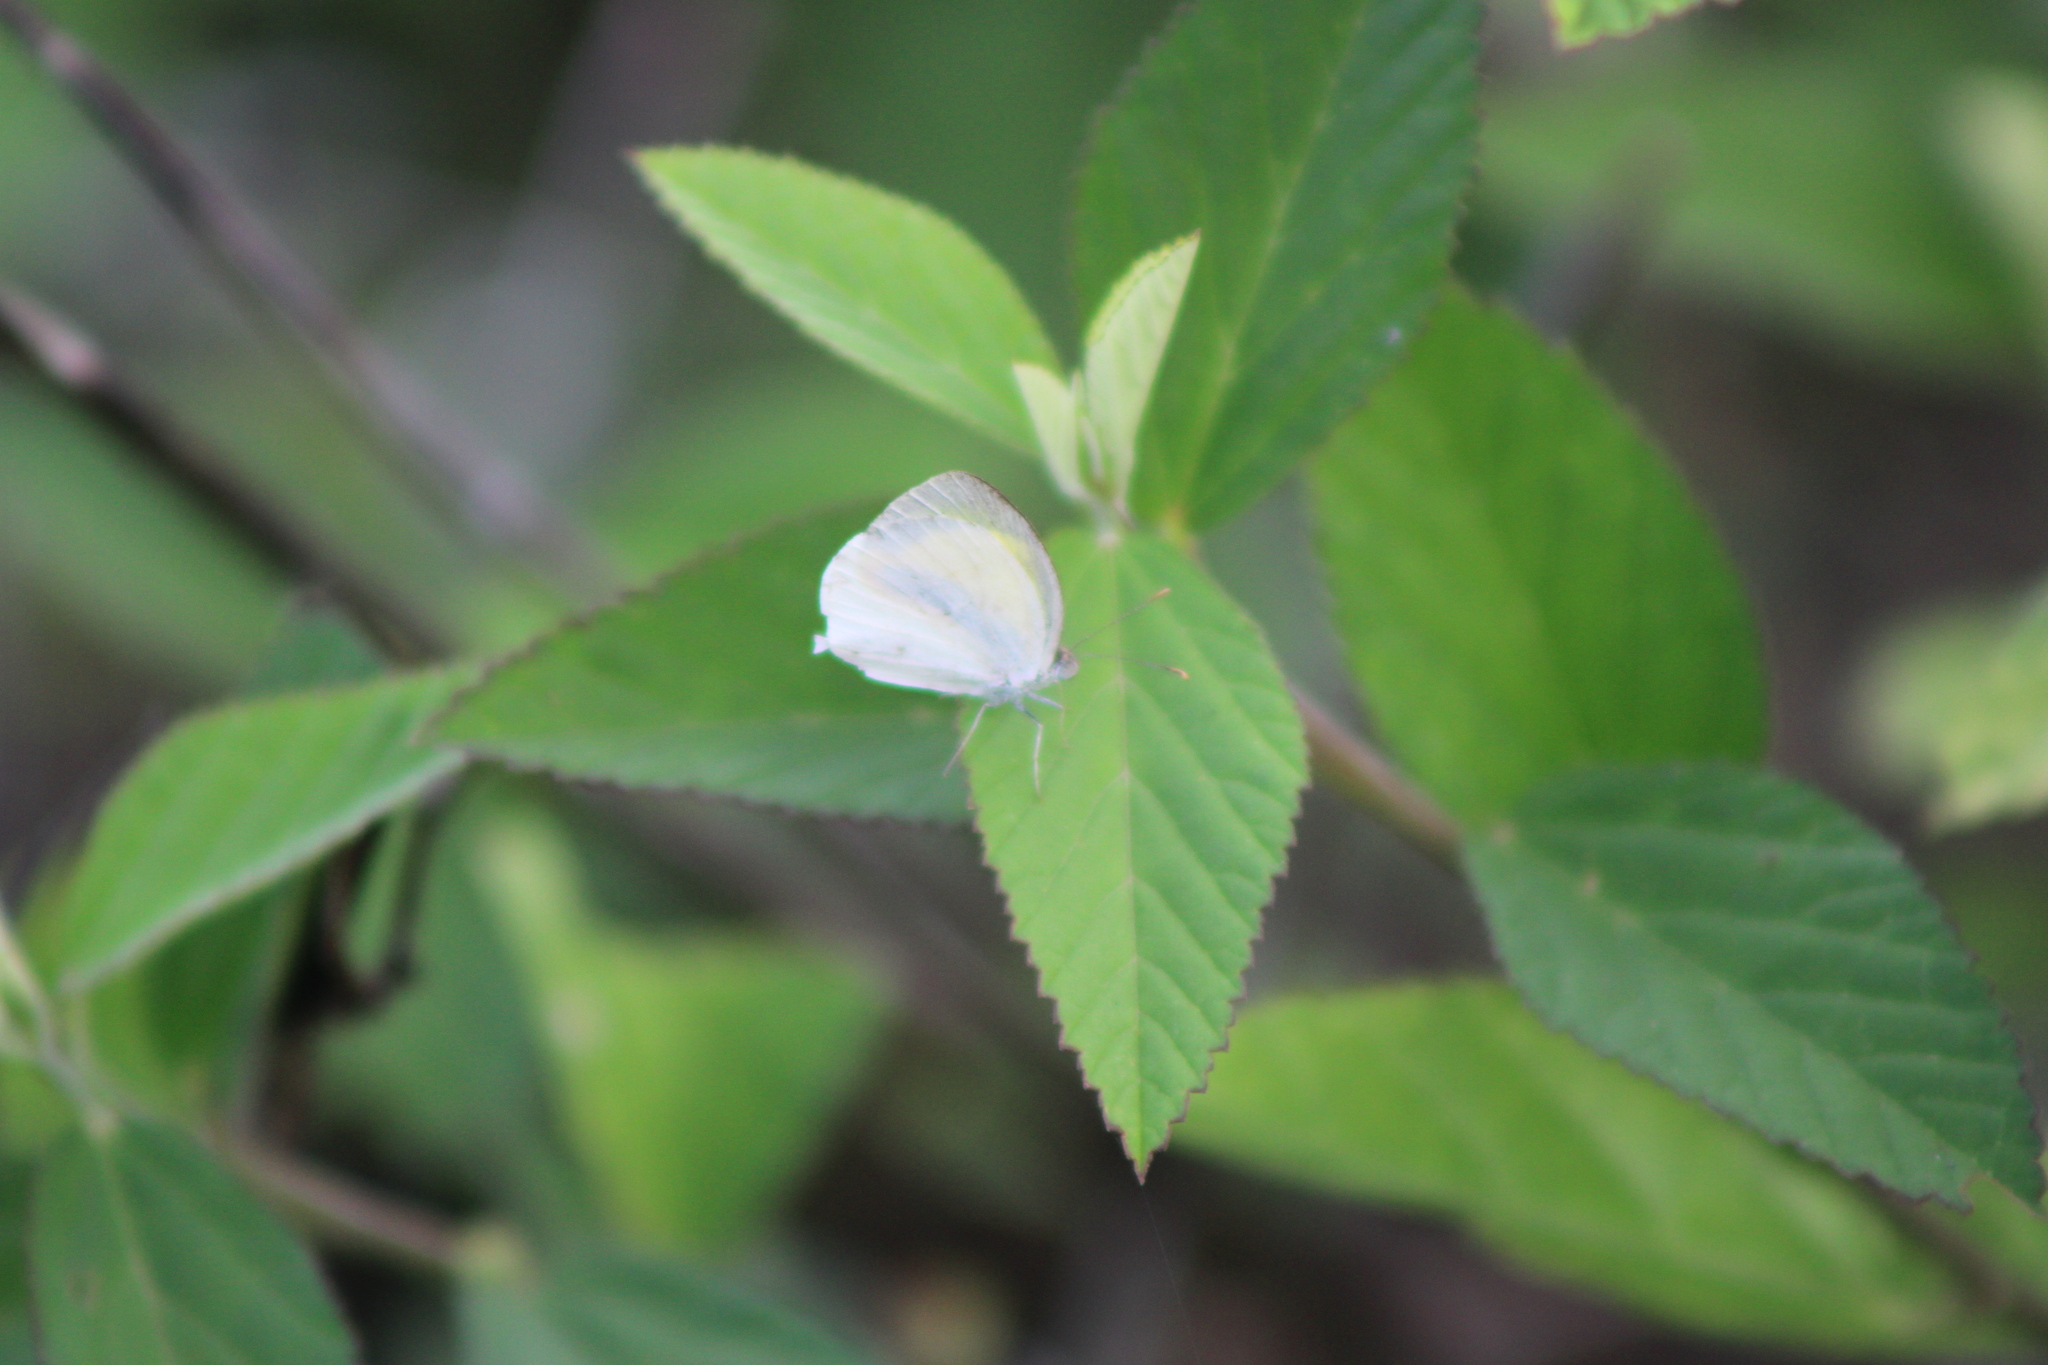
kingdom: Animalia
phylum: Arthropoda
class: Insecta
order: Lepidoptera
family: Pieridae
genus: Eurema
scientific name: Eurema daira
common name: Barred sulphur
